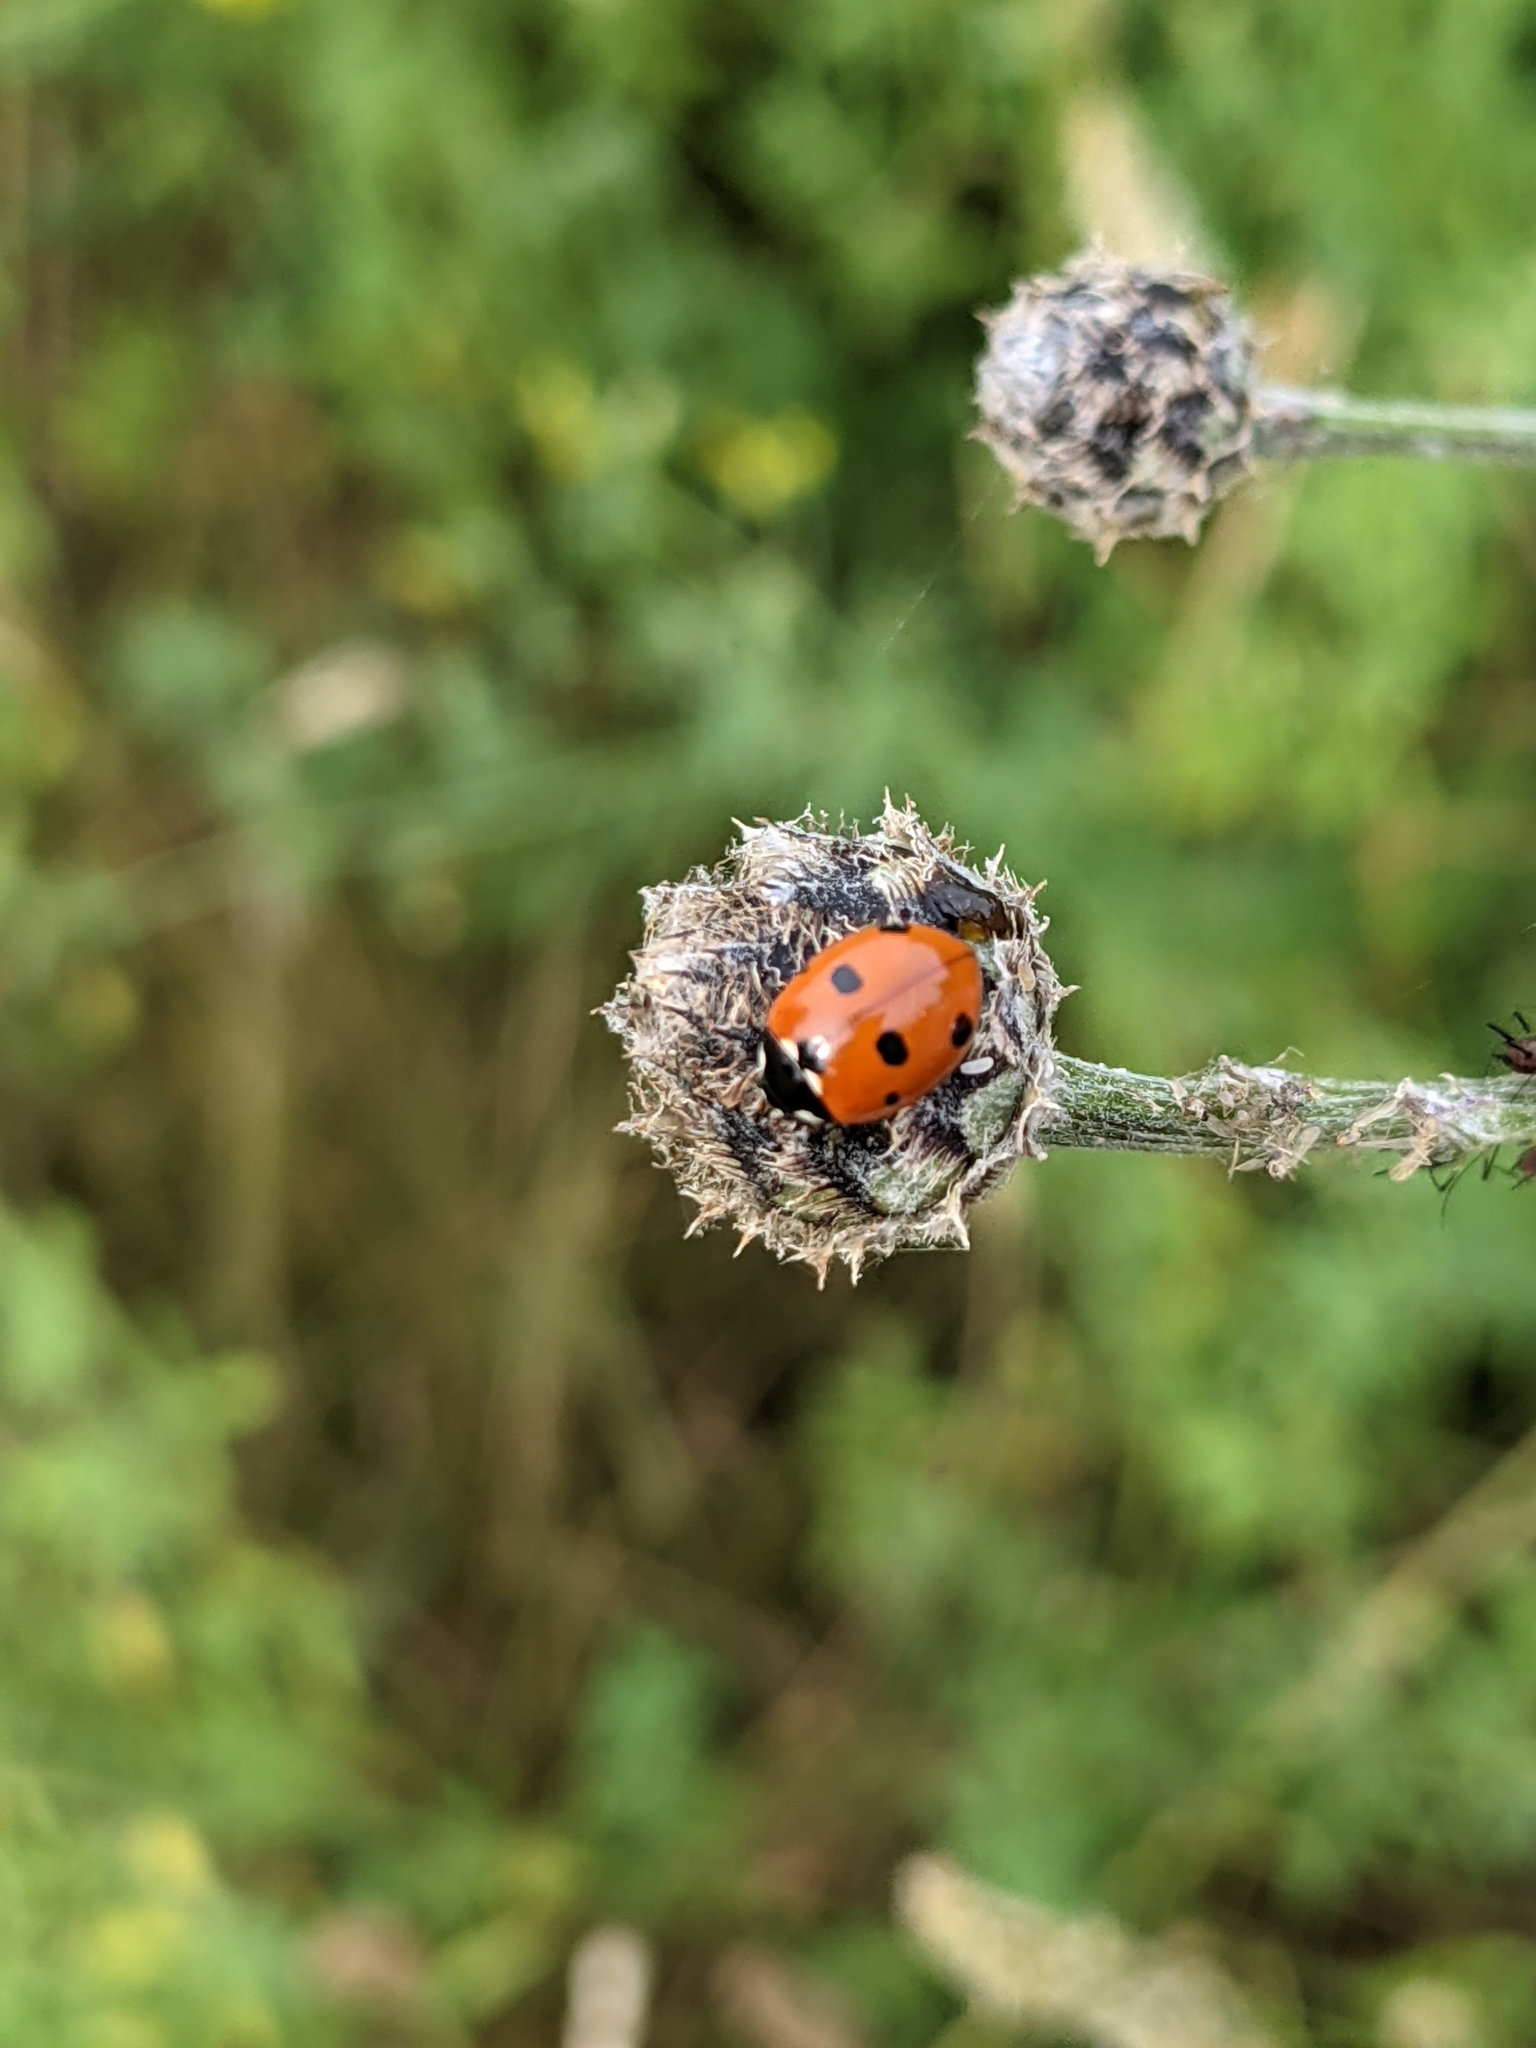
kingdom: Animalia
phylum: Arthropoda
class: Insecta
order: Coleoptera
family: Coccinellidae
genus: Coccinella
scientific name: Coccinella septempunctata
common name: Sevenspotted lady beetle
